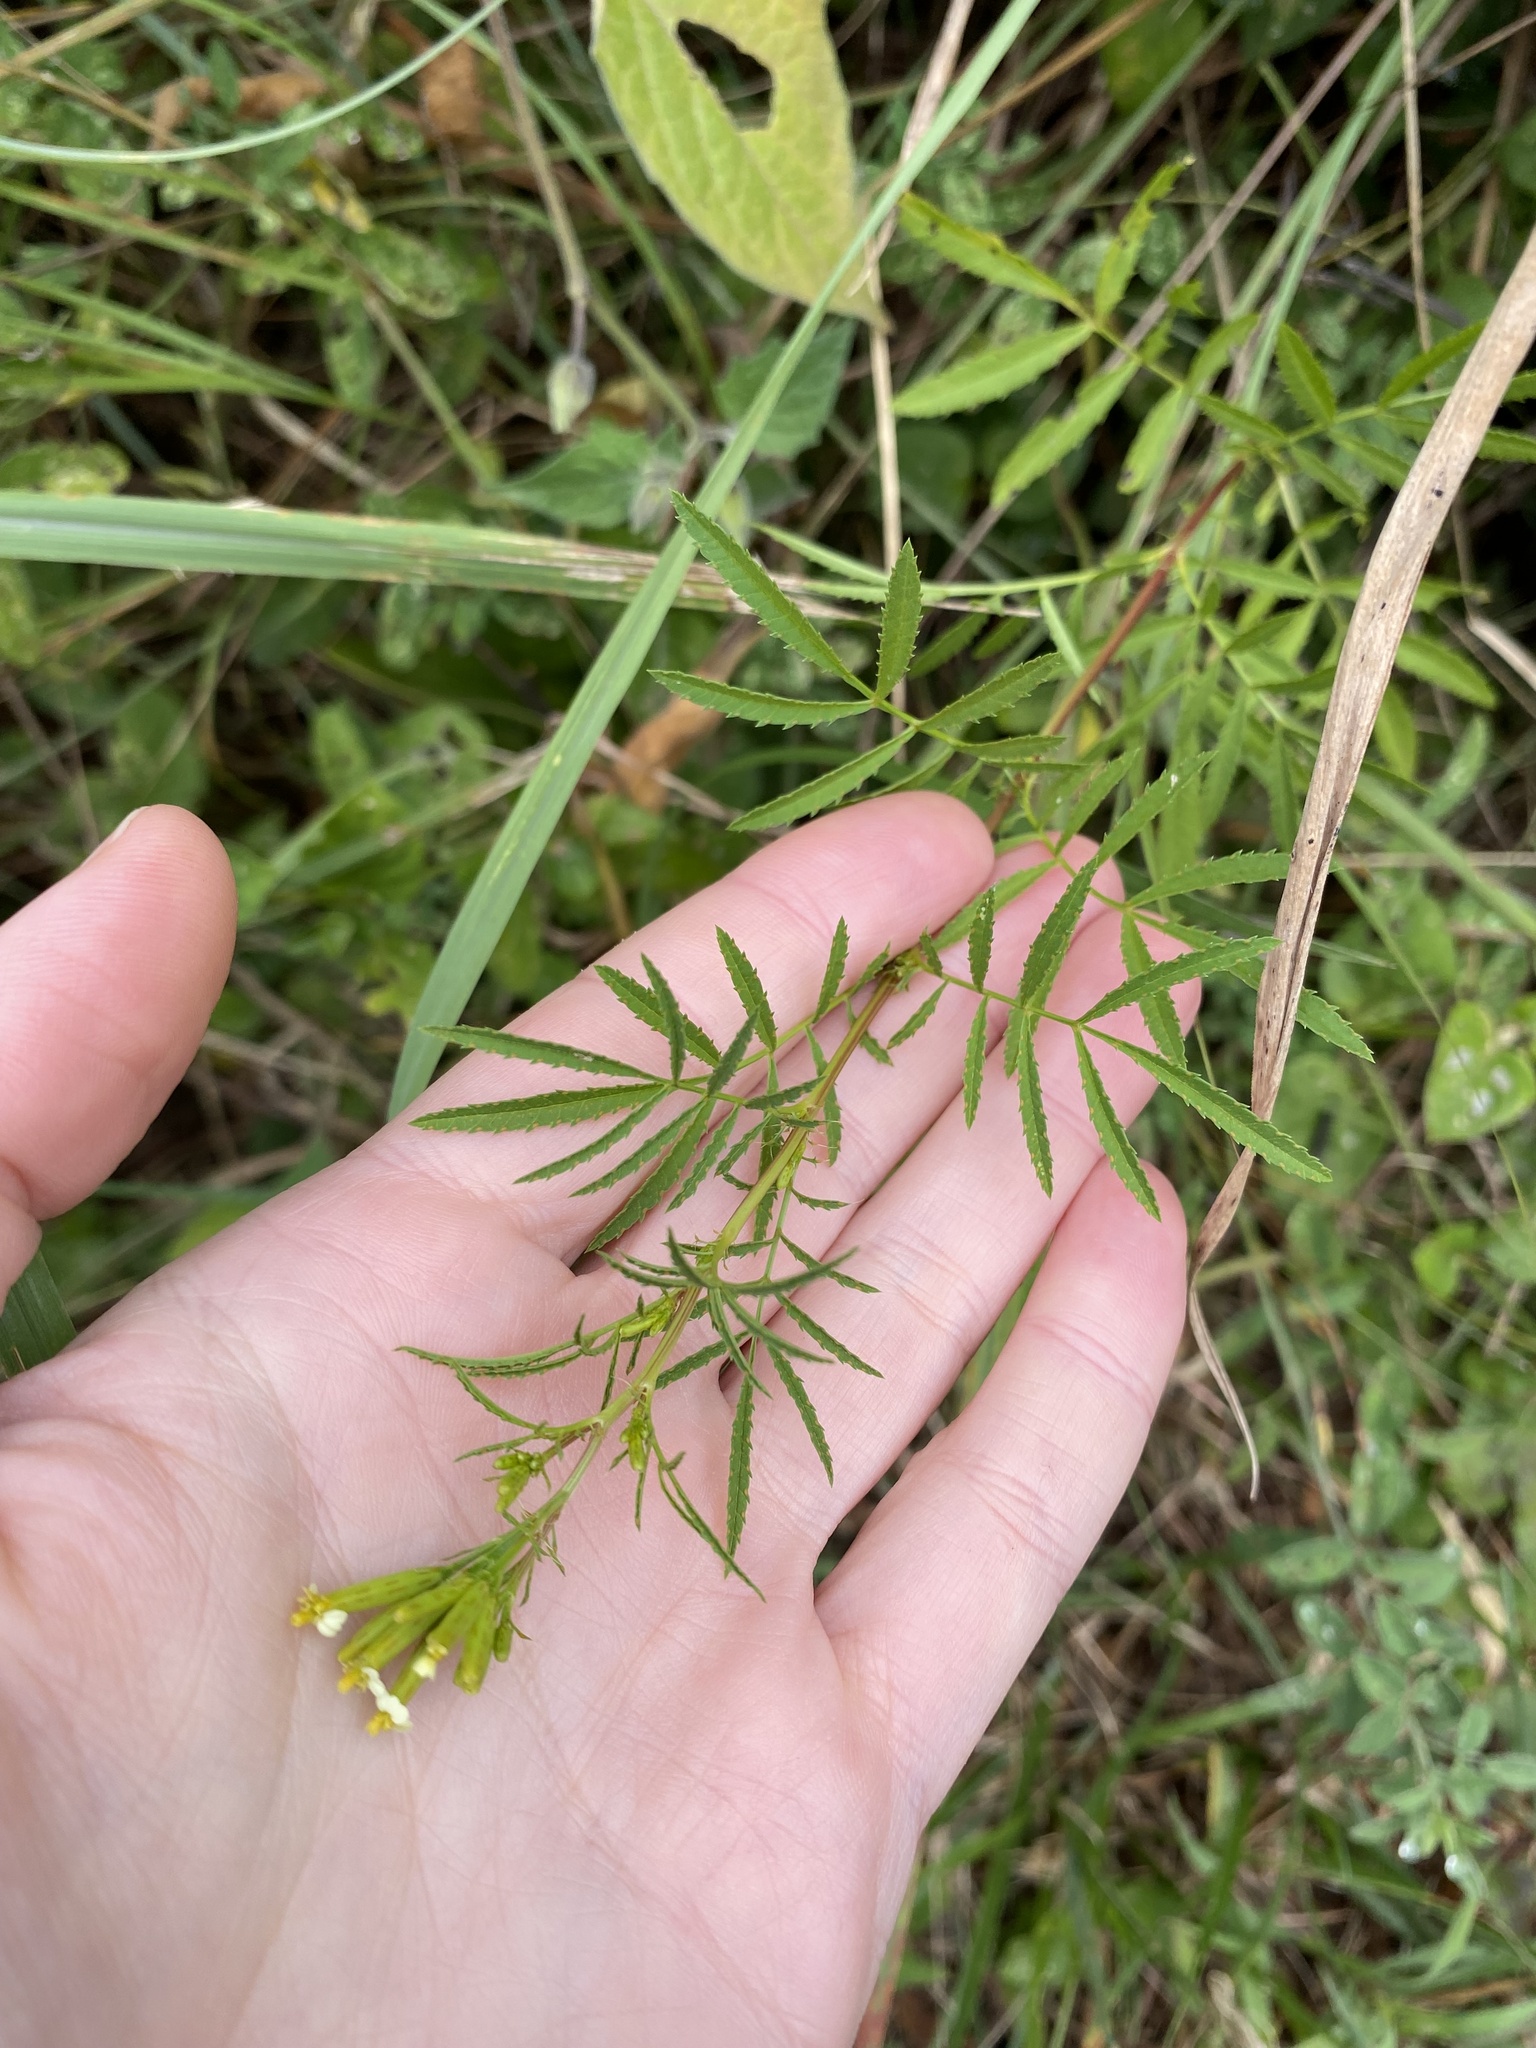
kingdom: Plantae
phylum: Tracheophyta
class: Magnoliopsida
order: Asterales
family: Asteraceae
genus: Tagetes
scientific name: Tagetes minuta
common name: Muster john henry
